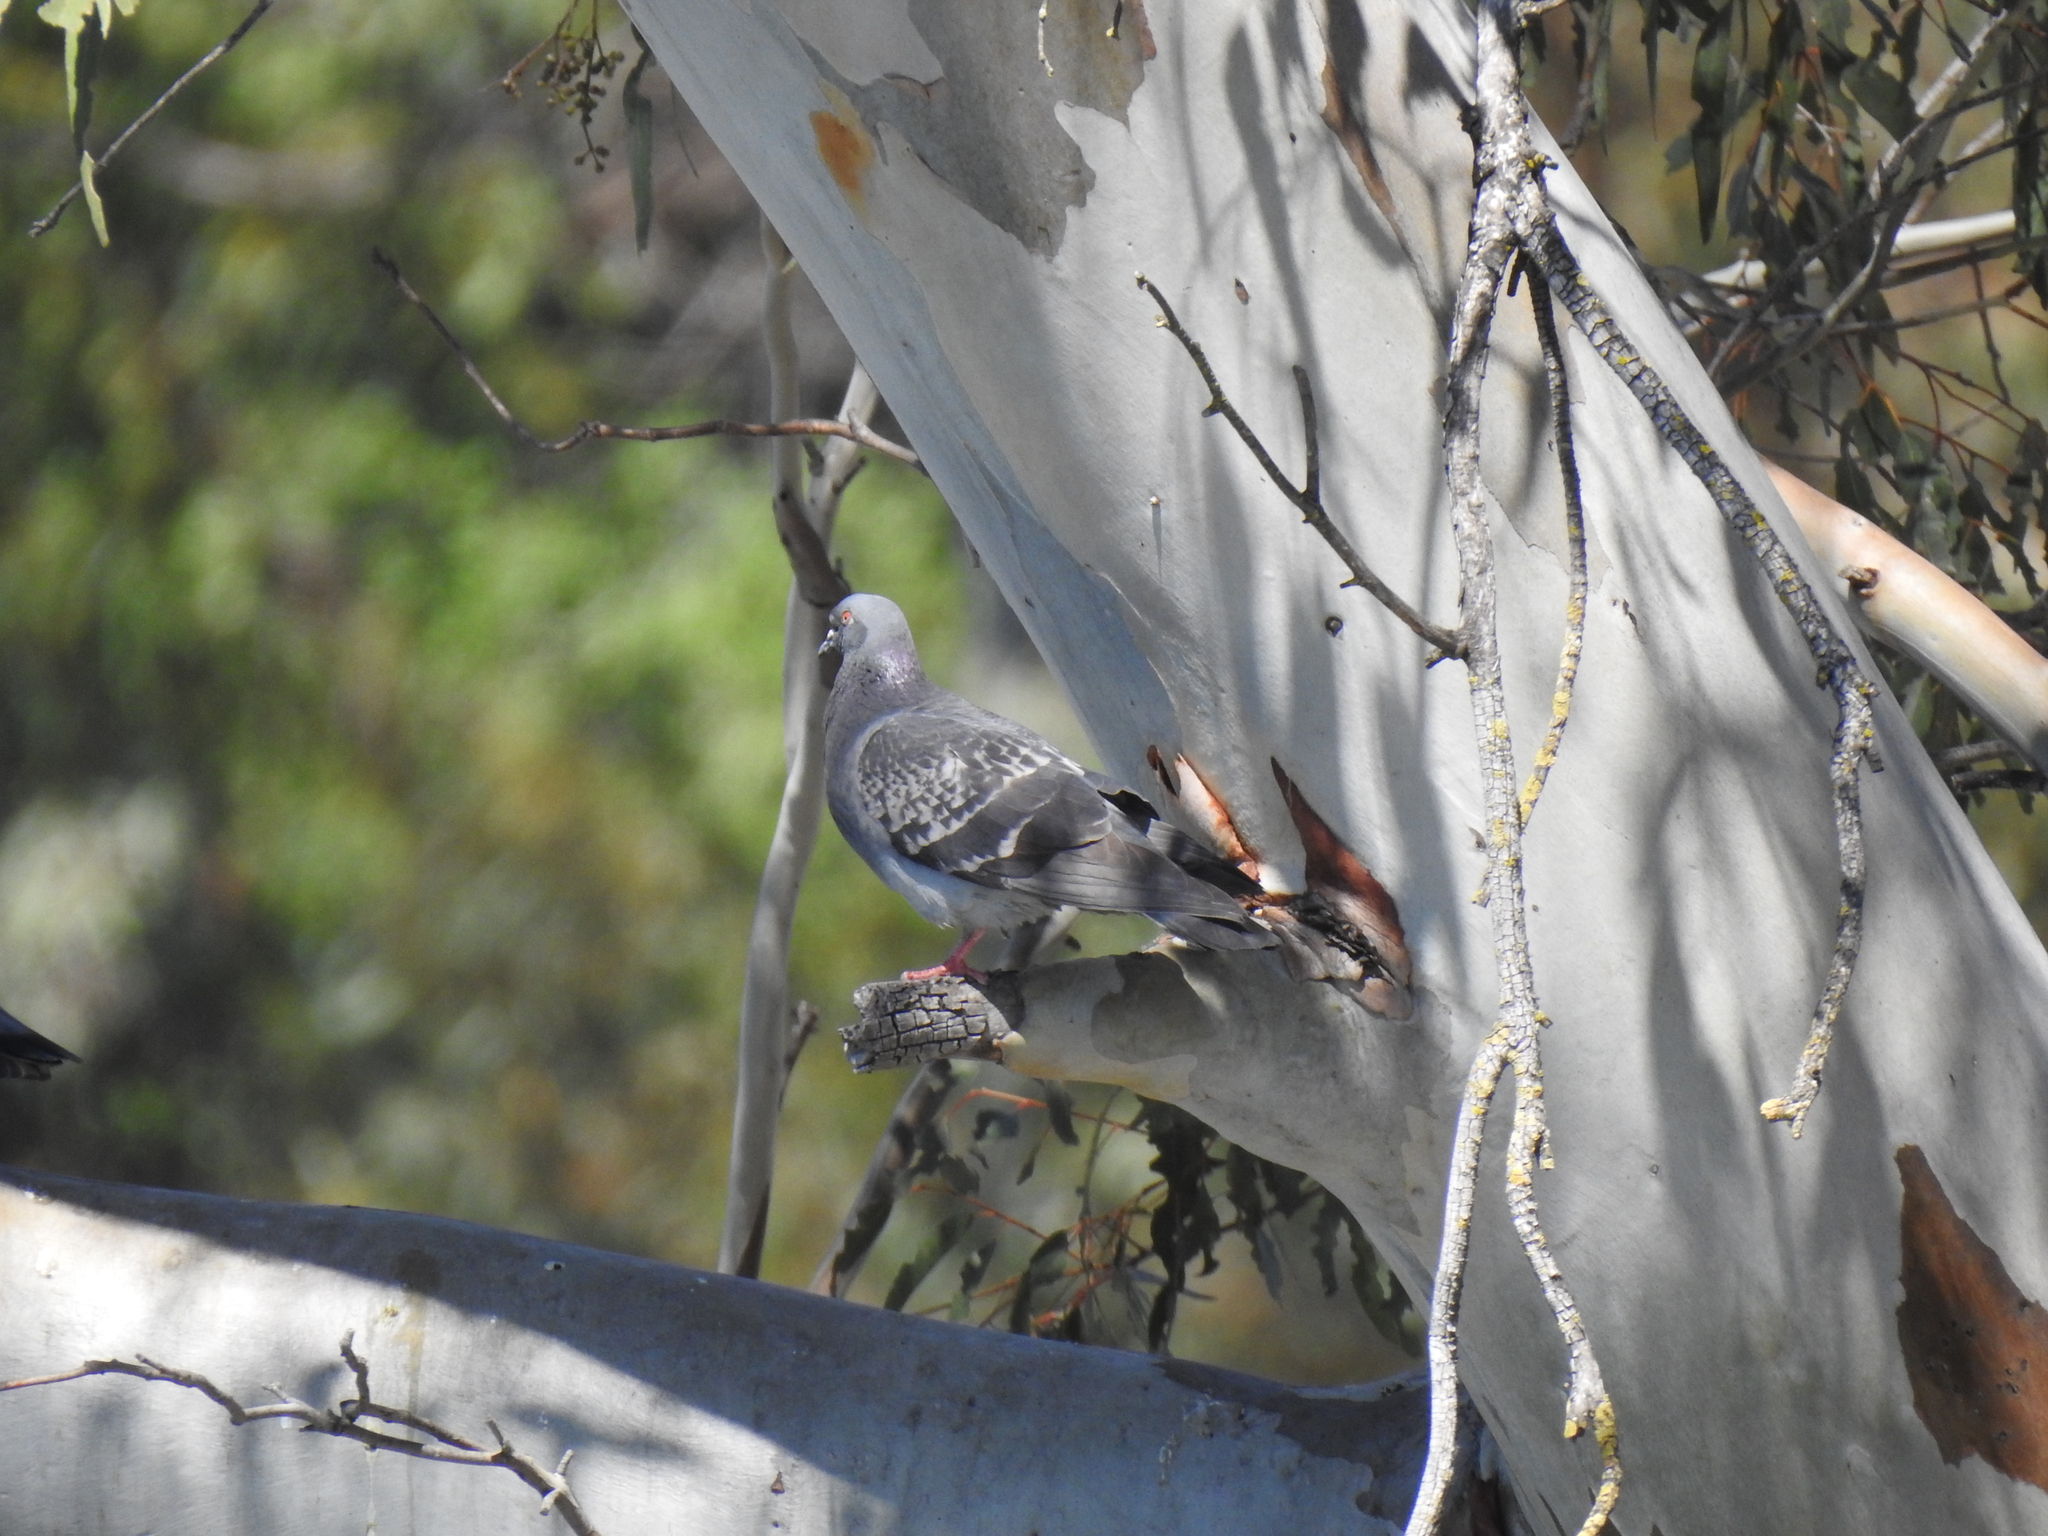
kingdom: Animalia
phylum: Chordata
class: Aves
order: Columbiformes
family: Columbidae
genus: Columba
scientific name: Columba livia
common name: Rock pigeon
